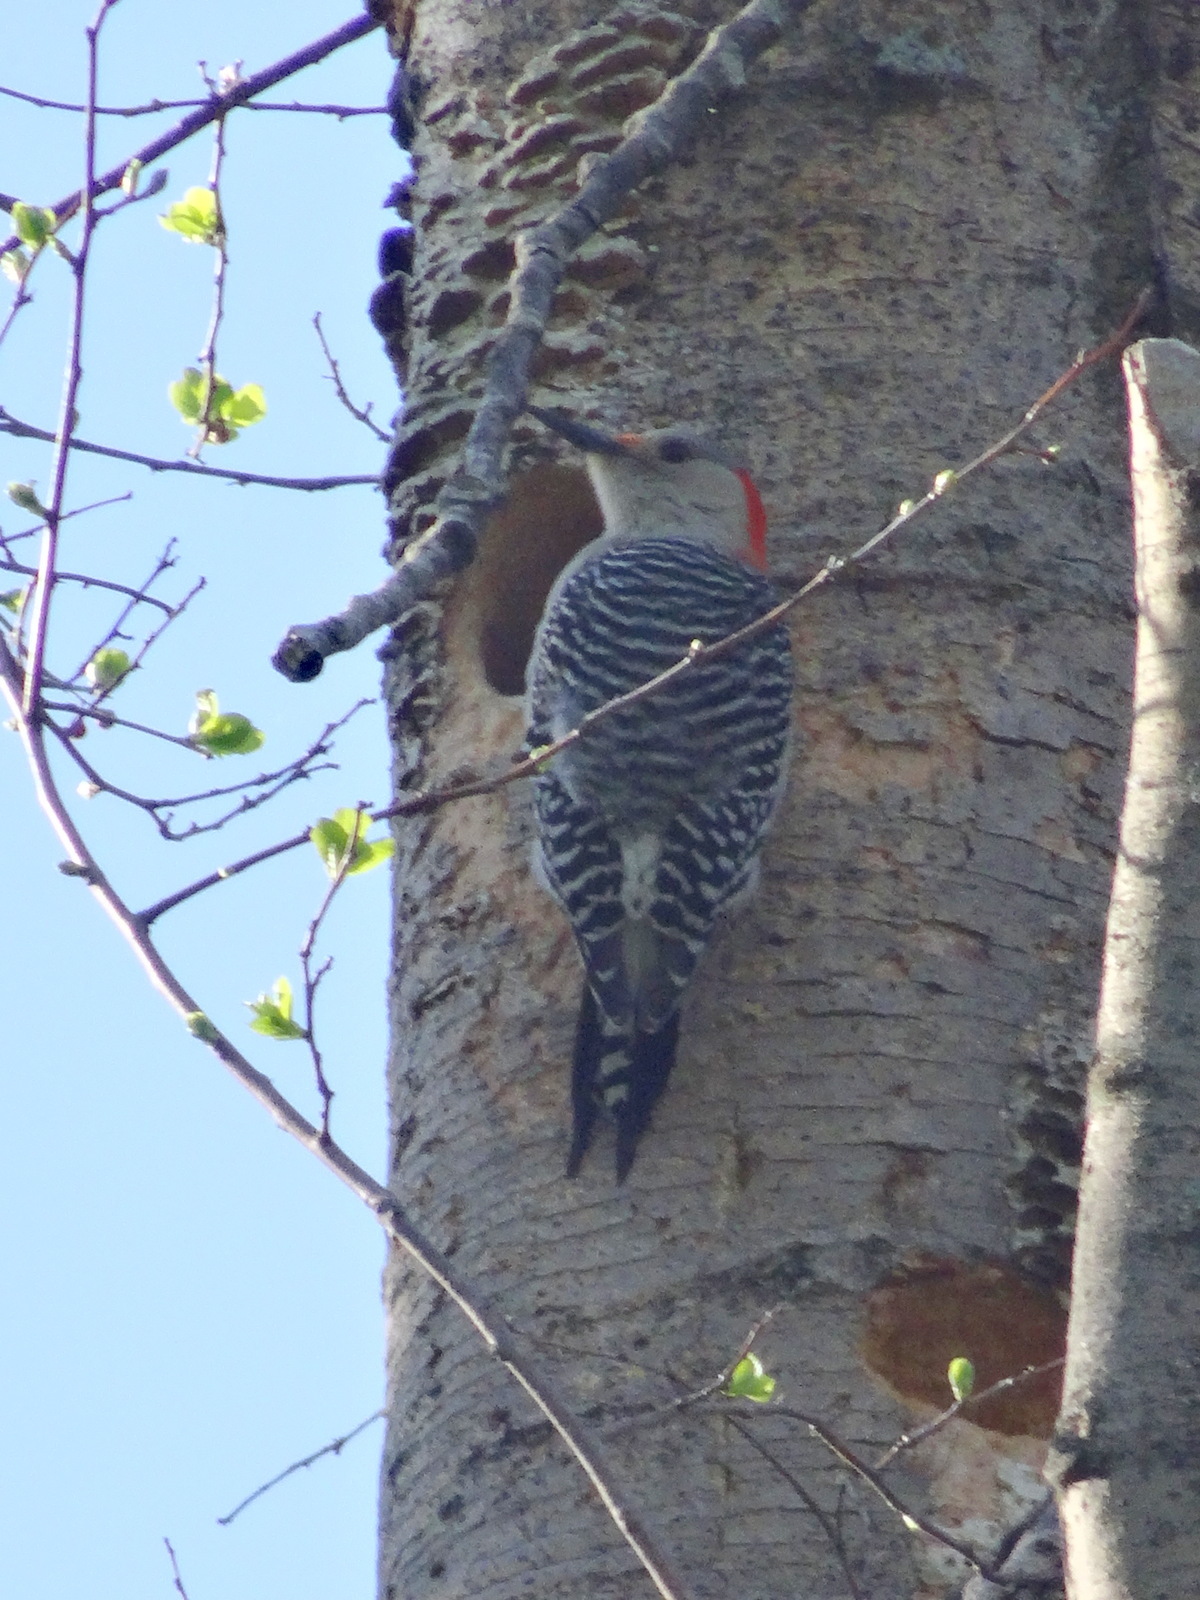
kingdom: Animalia
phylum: Chordata
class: Aves
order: Piciformes
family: Picidae
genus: Melanerpes
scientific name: Melanerpes carolinus
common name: Red-bellied woodpecker
